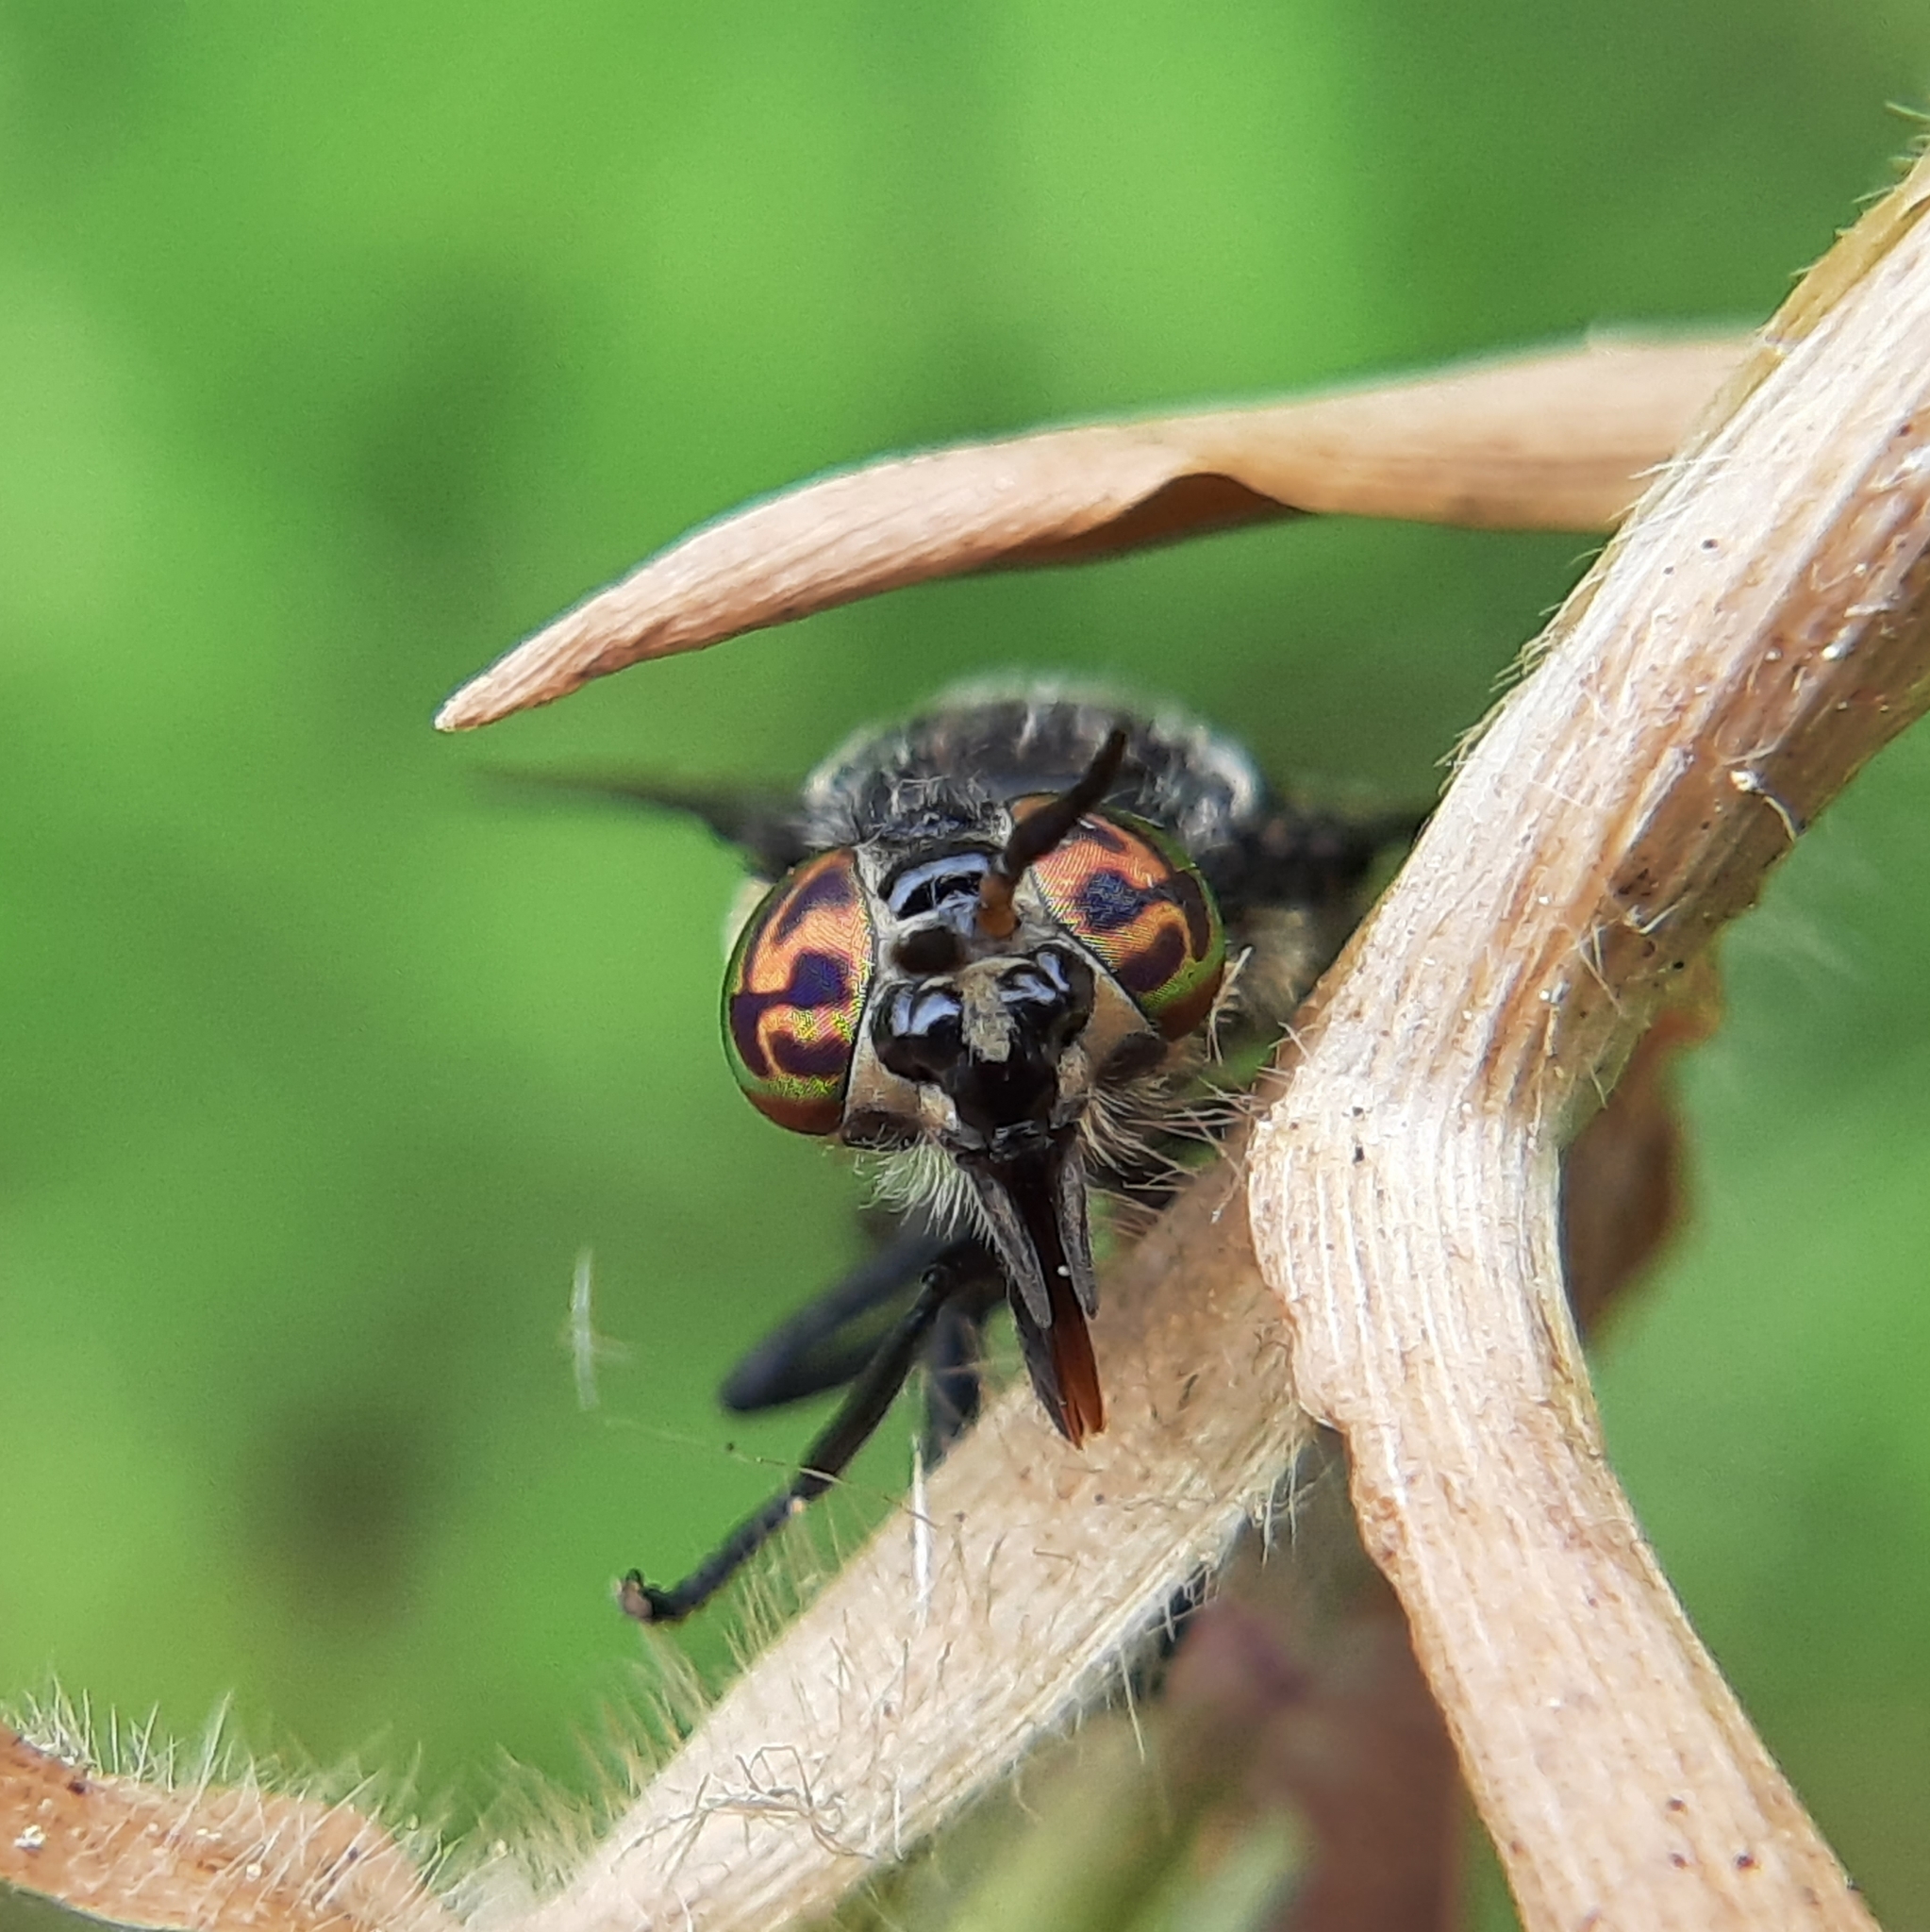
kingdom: Animalia
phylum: Arthropoda
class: Insecta
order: Diptera
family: Tabanidae
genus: Chrysops
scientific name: Chrysops mitis
